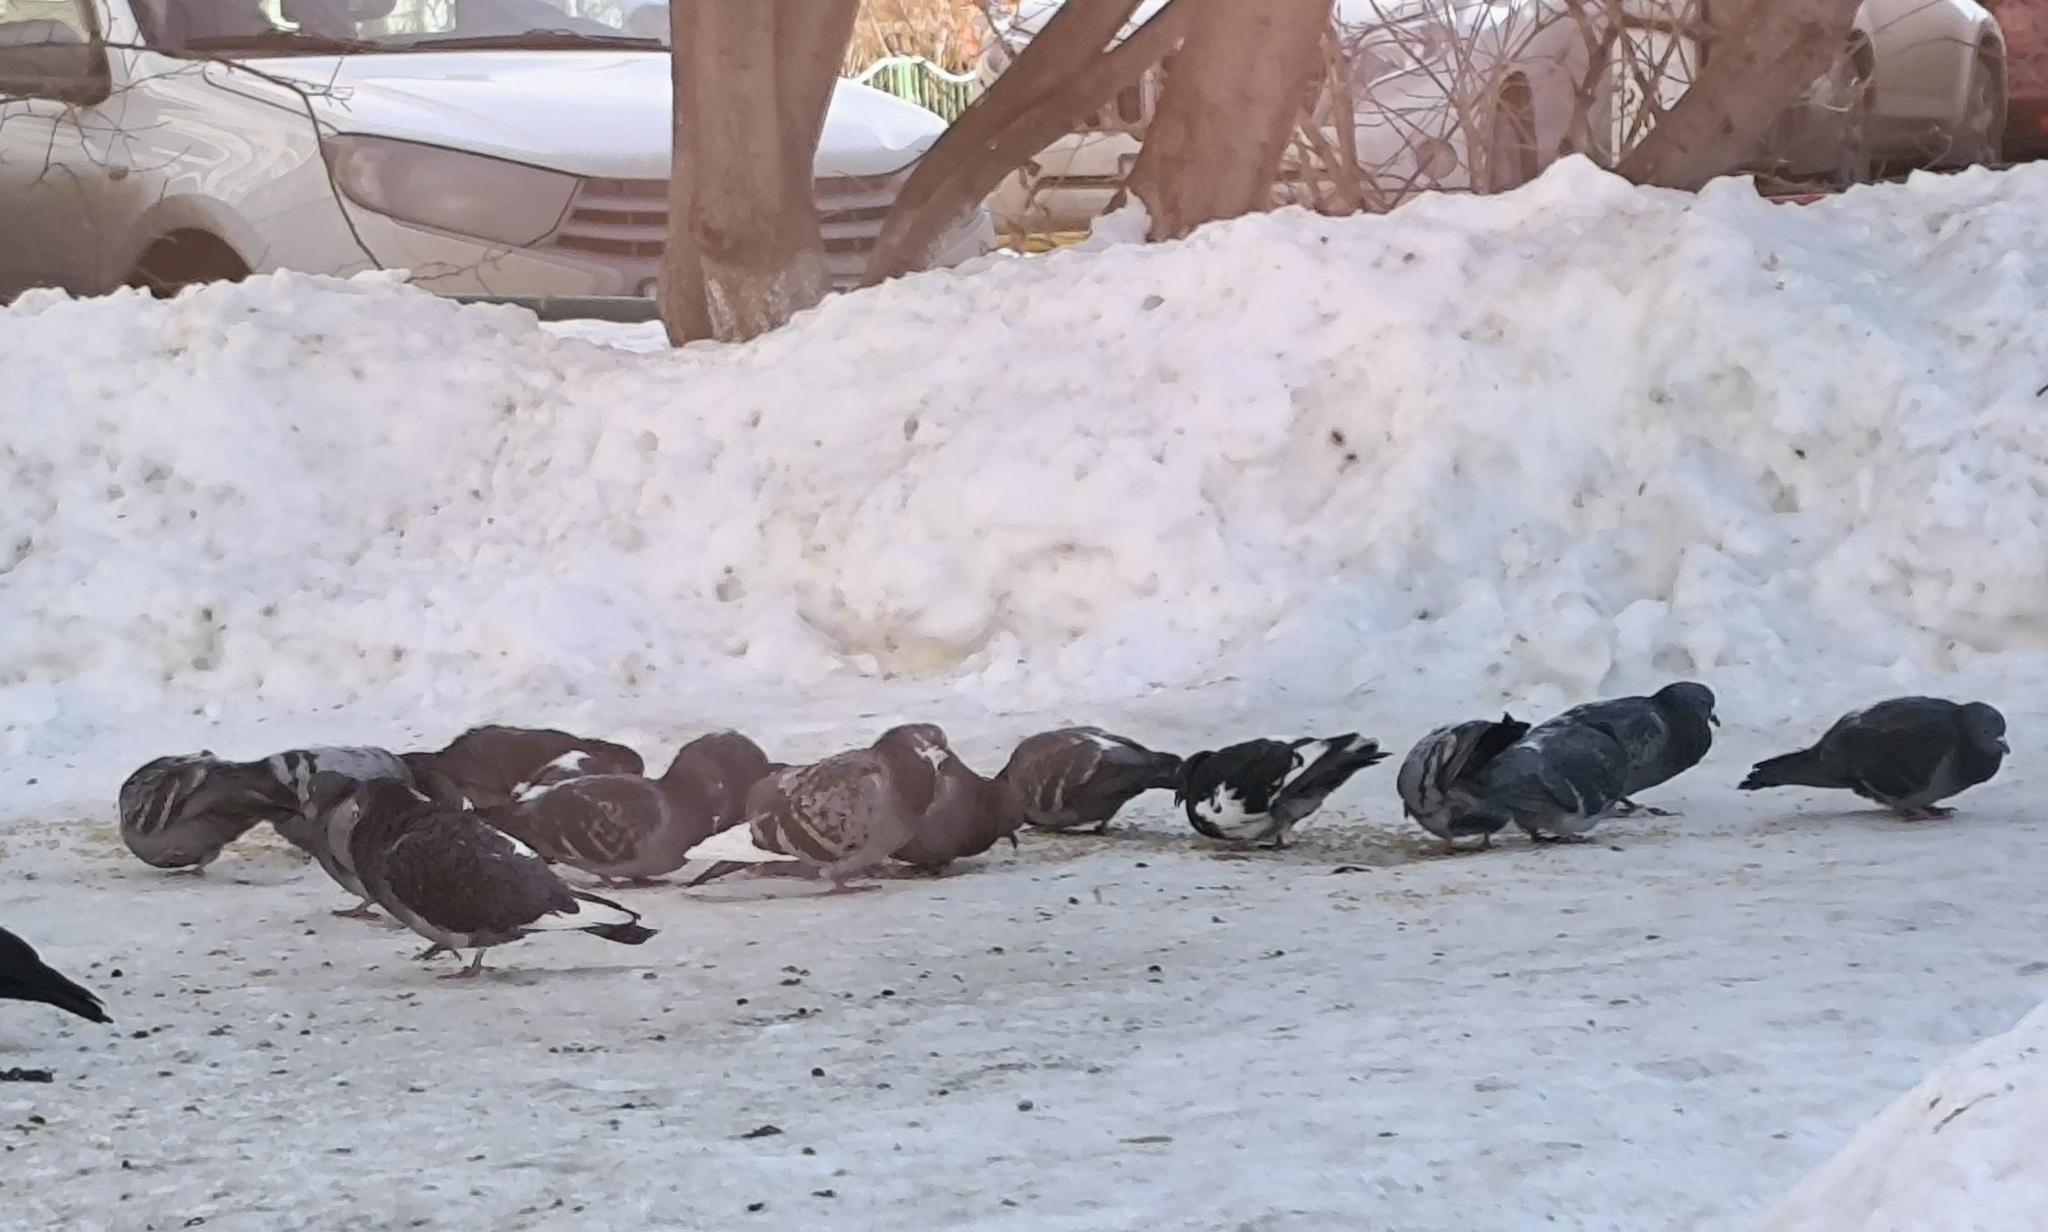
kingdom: Animalia
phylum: Chordata
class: Aves
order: Columbiformes
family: Columbidae
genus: Columba
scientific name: Columba livia
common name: Rock pigeon
